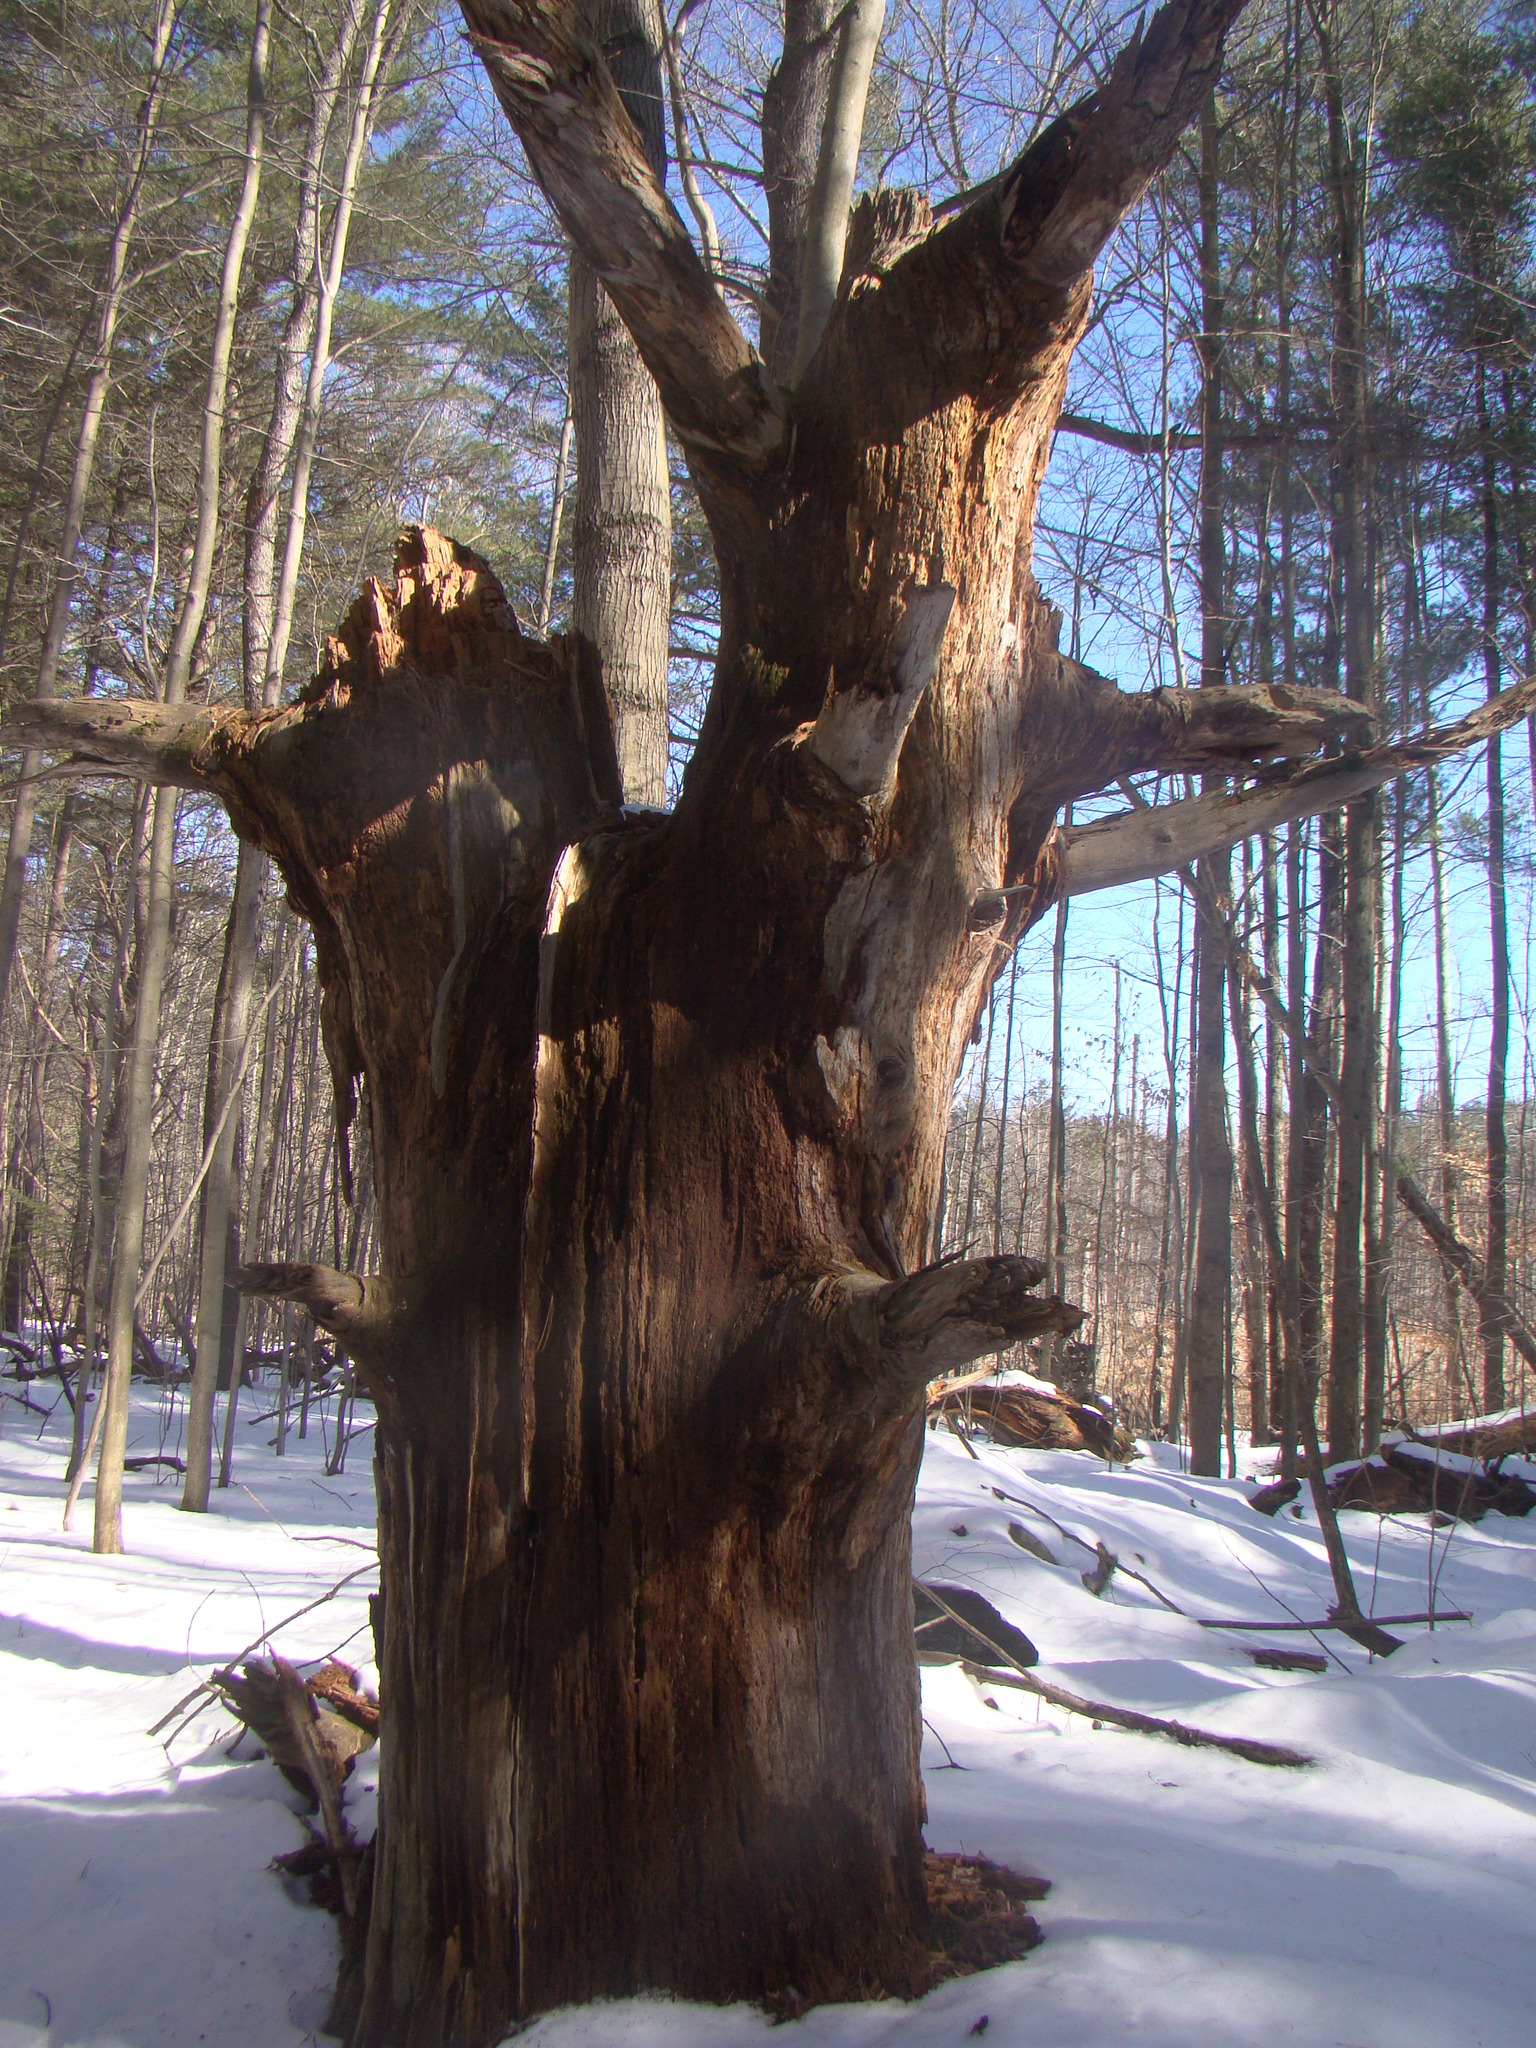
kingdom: Plantae
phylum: Tracheophyta
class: Pinopsida
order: Pinales
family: Pinaceae
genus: Pinus
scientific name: Pinus strobus
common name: Weymouth pine
